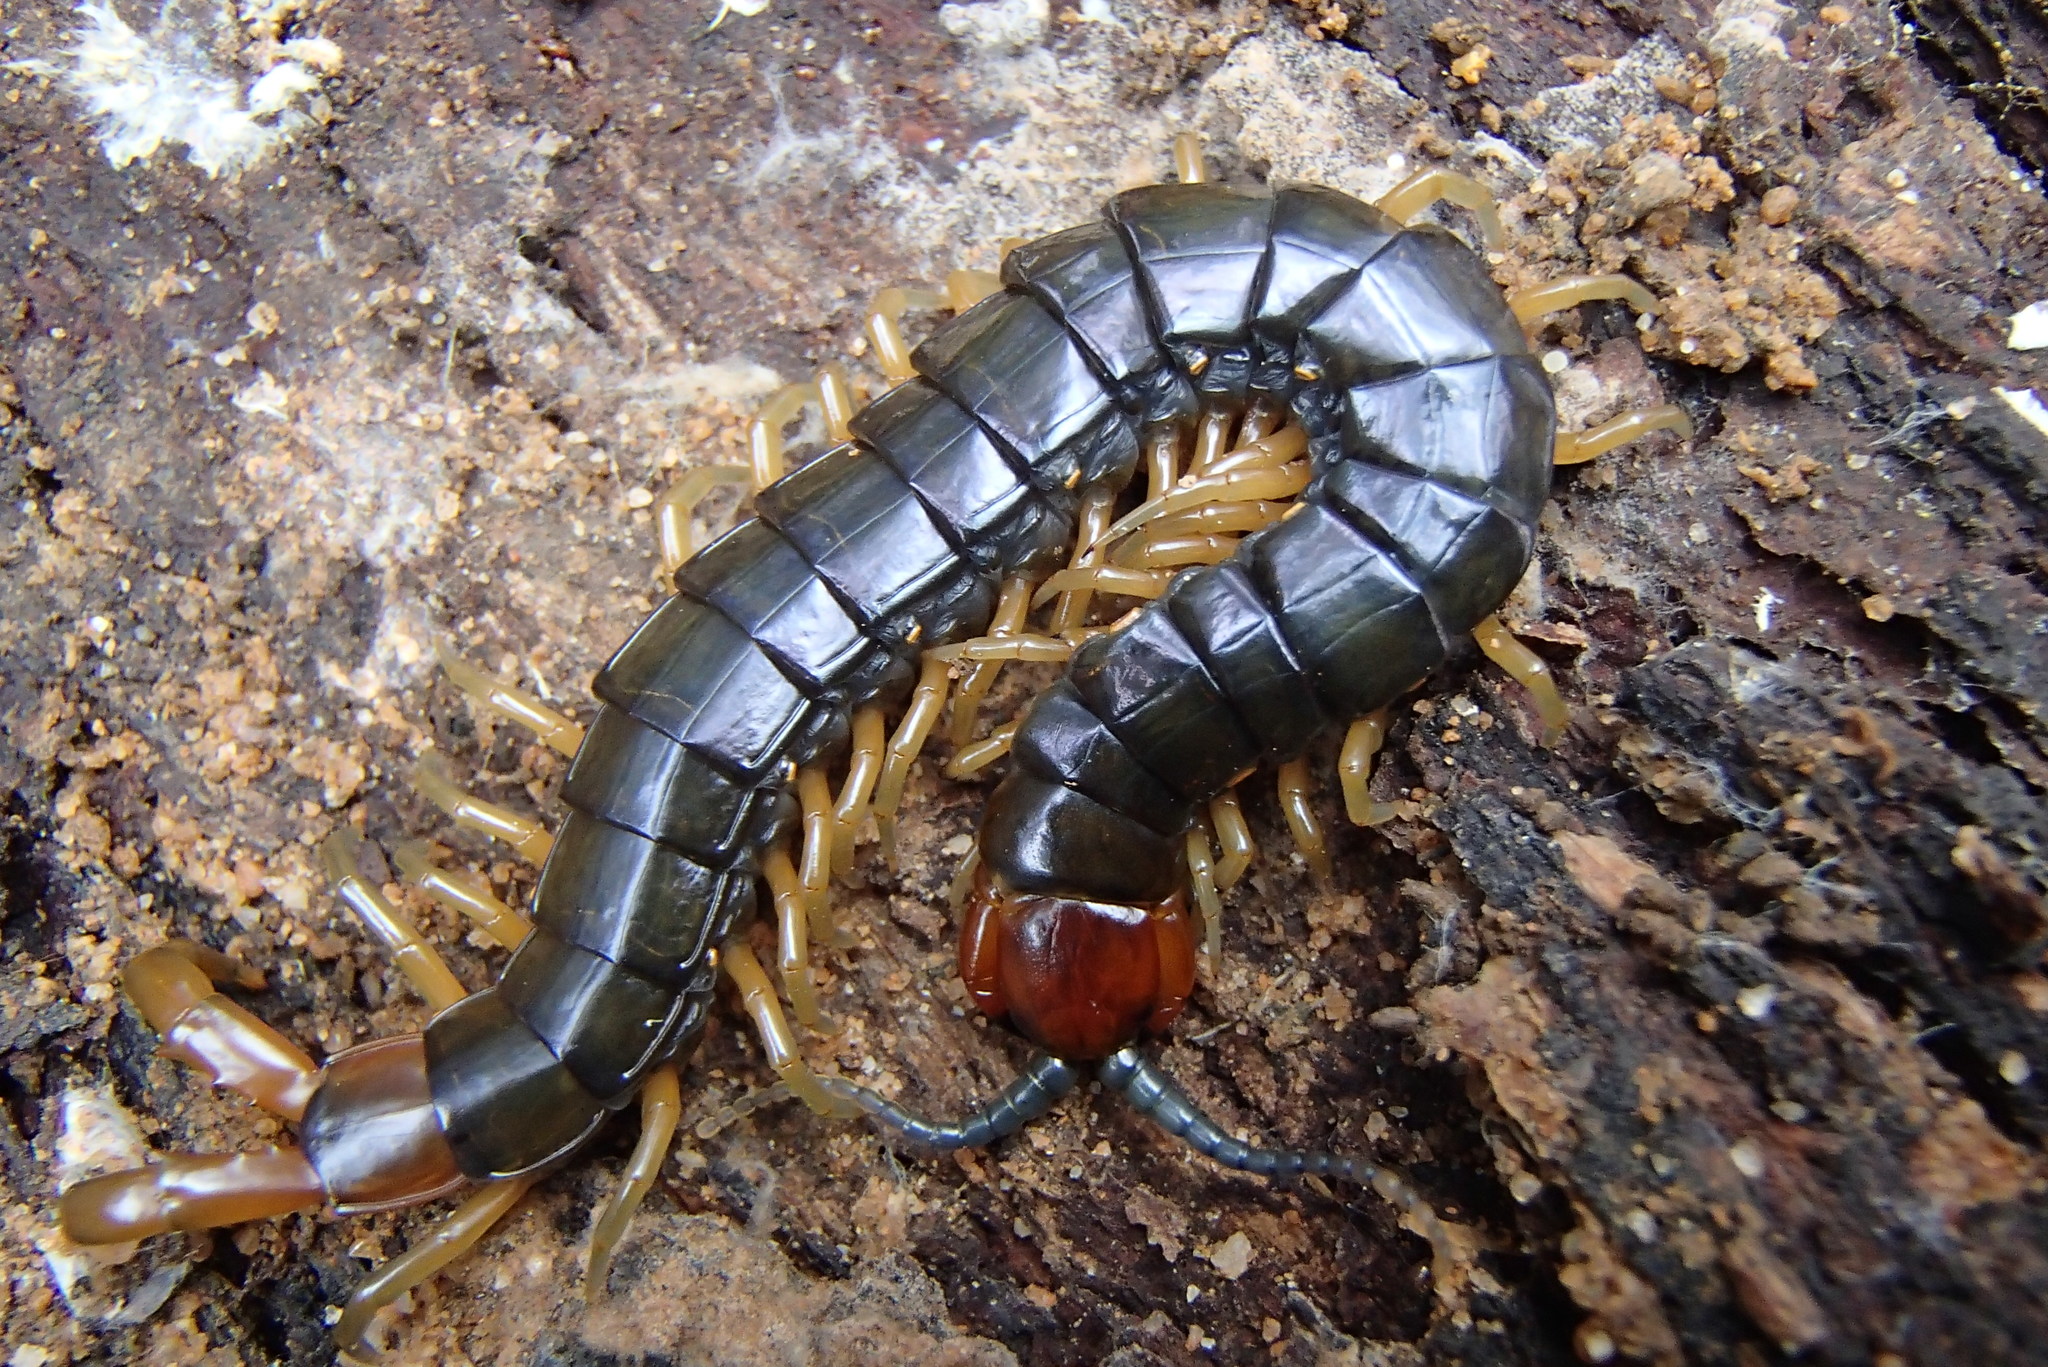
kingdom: Animalia
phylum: Arthropoda
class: Chilopoda
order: Scolopendromorpha
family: Scolopendridae
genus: Cormocephalus
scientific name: Cormocephalus westwoodi
